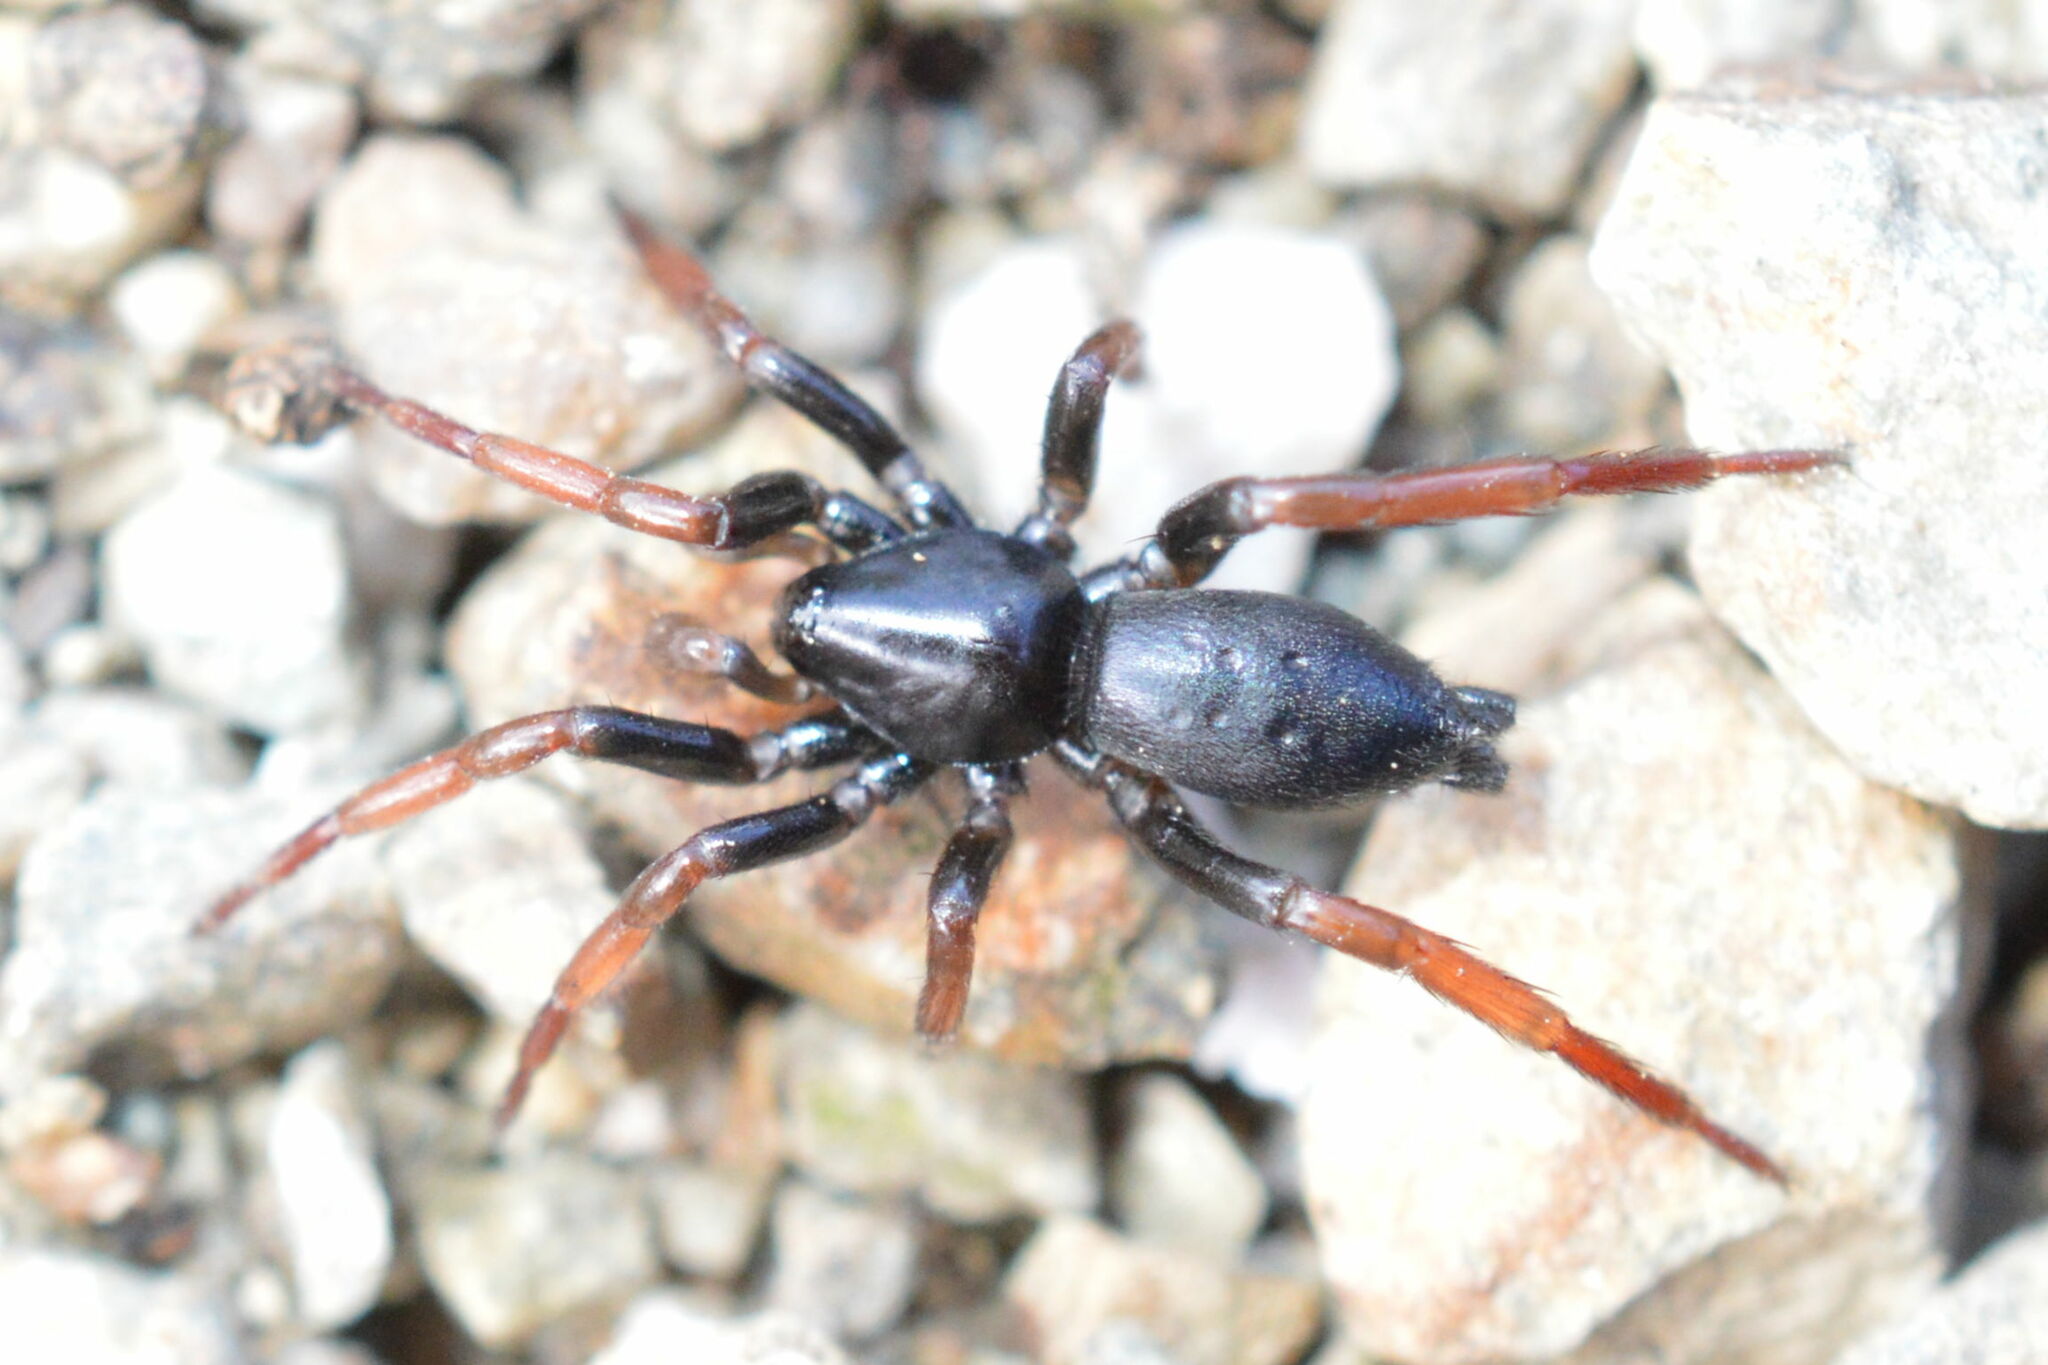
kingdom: Animalia
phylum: Arthropoda
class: Arachnida
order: Araneae
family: Gnaphosidae
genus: Trachyzelotes
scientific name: Trachyzelotes pedestris
